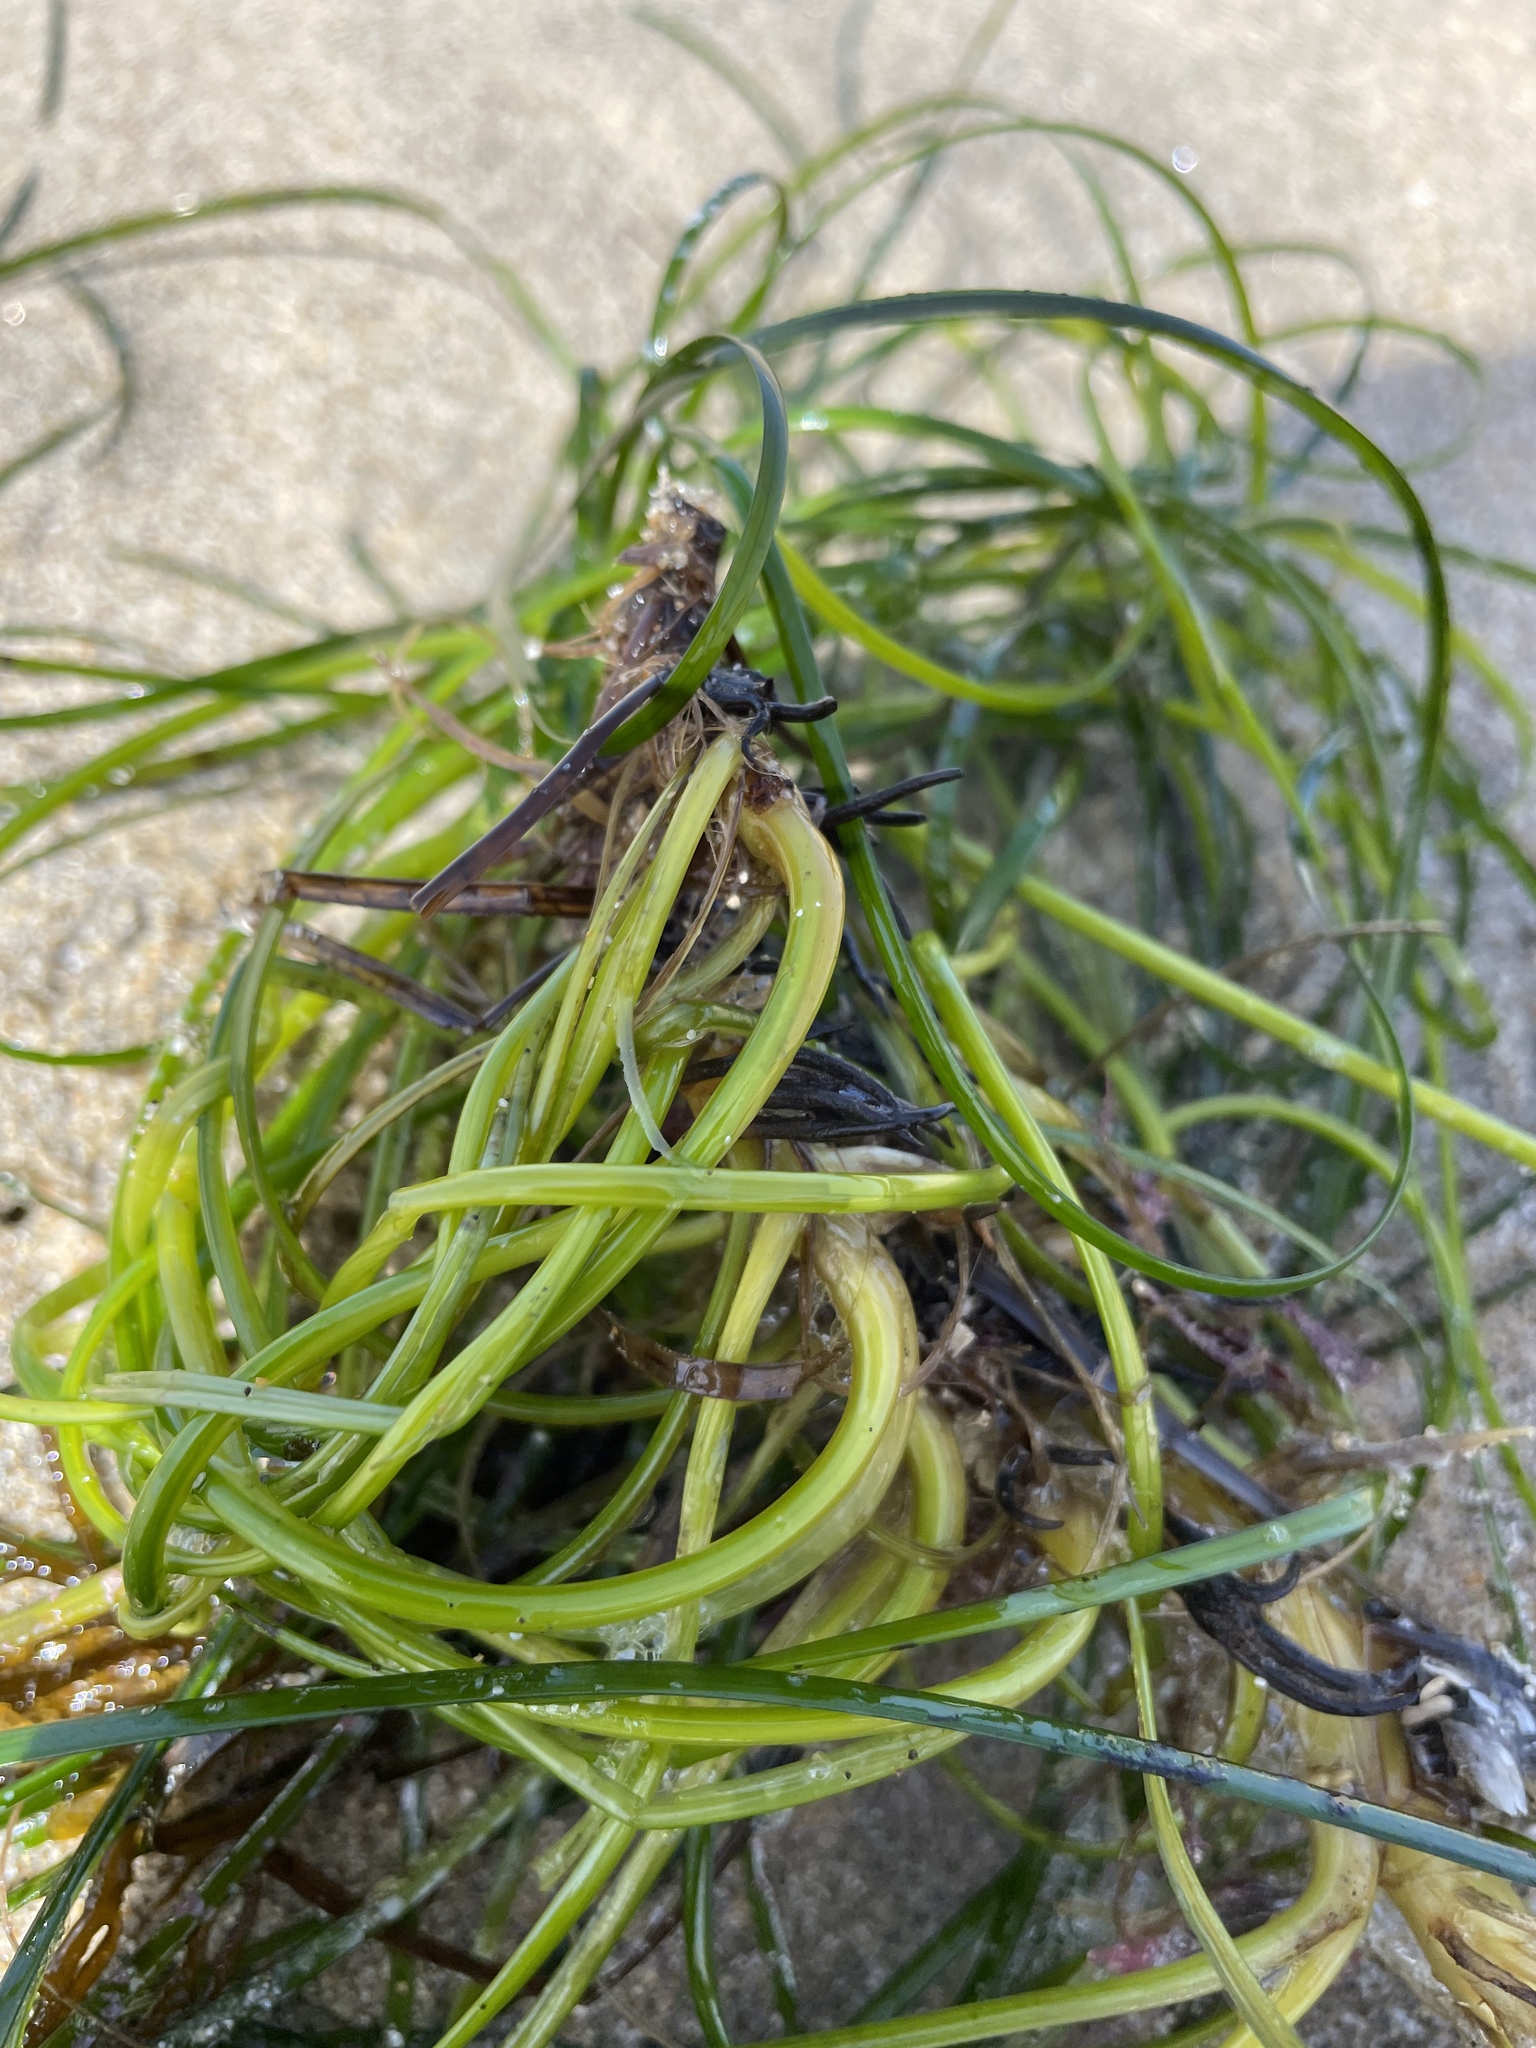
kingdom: Plantae
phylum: Tracheophyta
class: Liliopsida
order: Alismatales
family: Zosteraceae
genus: Phyllospadix
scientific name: Phyllospadix torreyi
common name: Surfgrass
